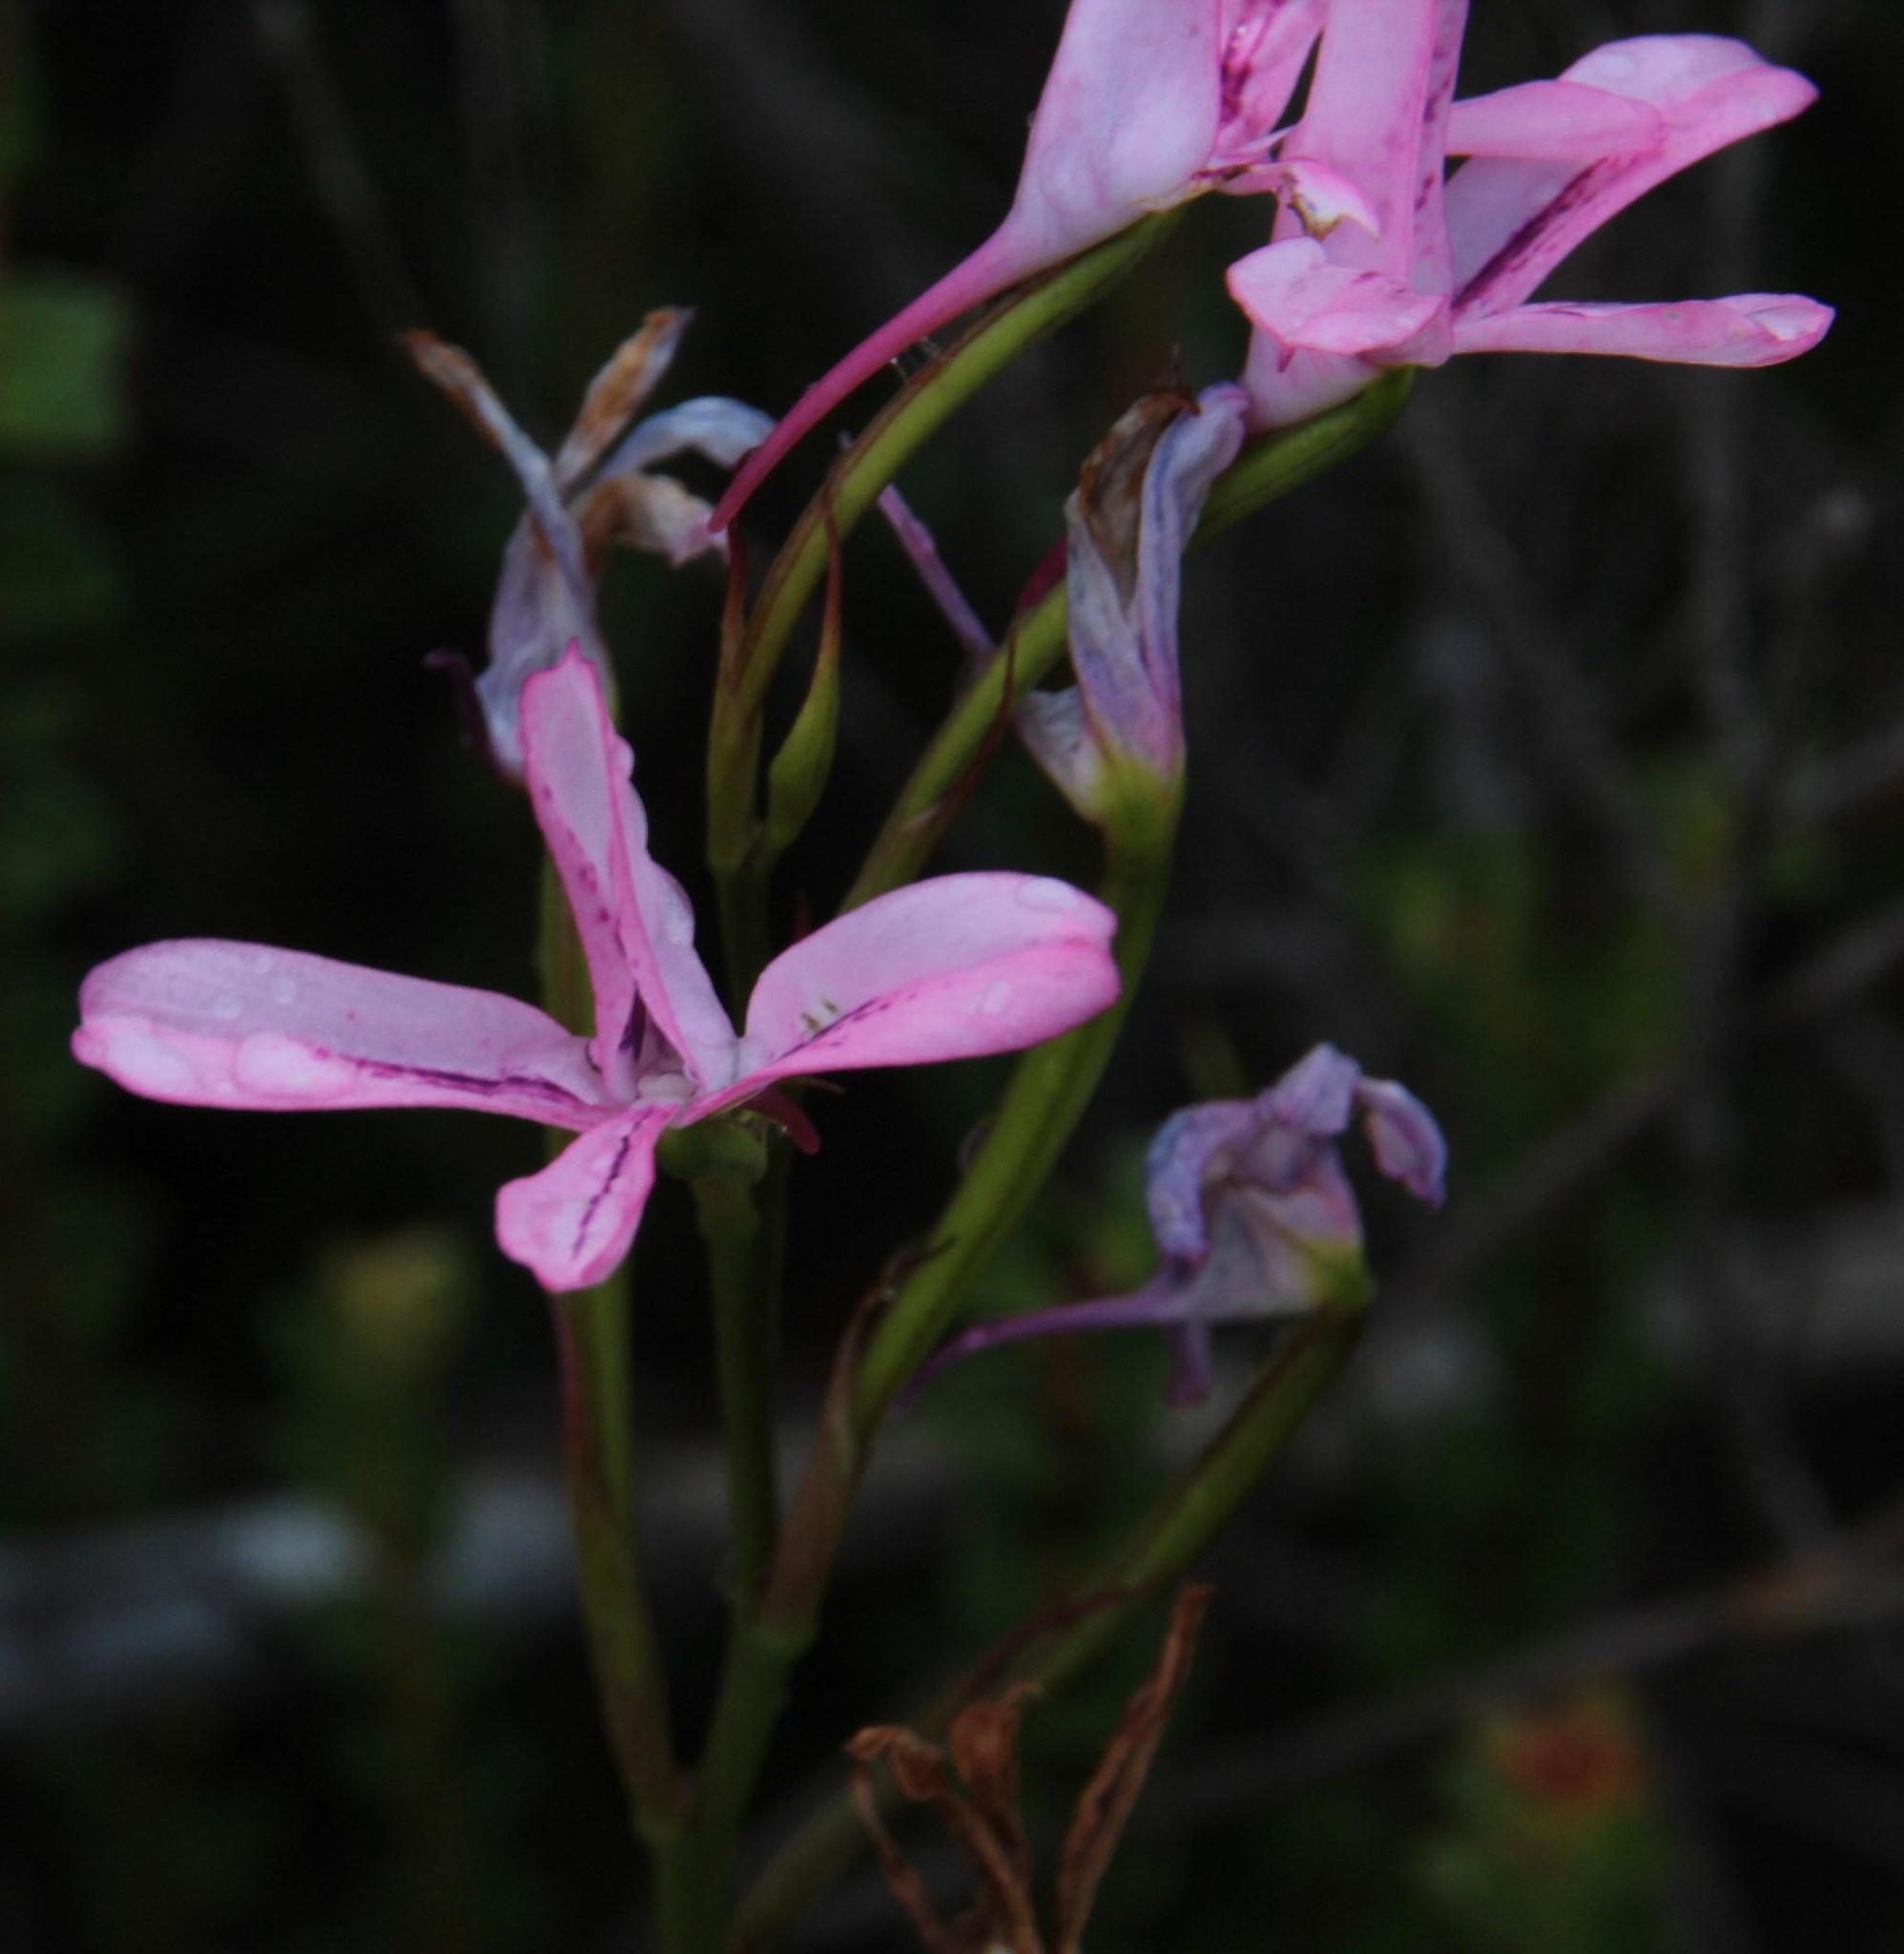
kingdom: Plantae
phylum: Tracheophyta
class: Liliopsida
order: Asparagales
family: Orchidaceae
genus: Disa
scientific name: Disa gladioliflora
